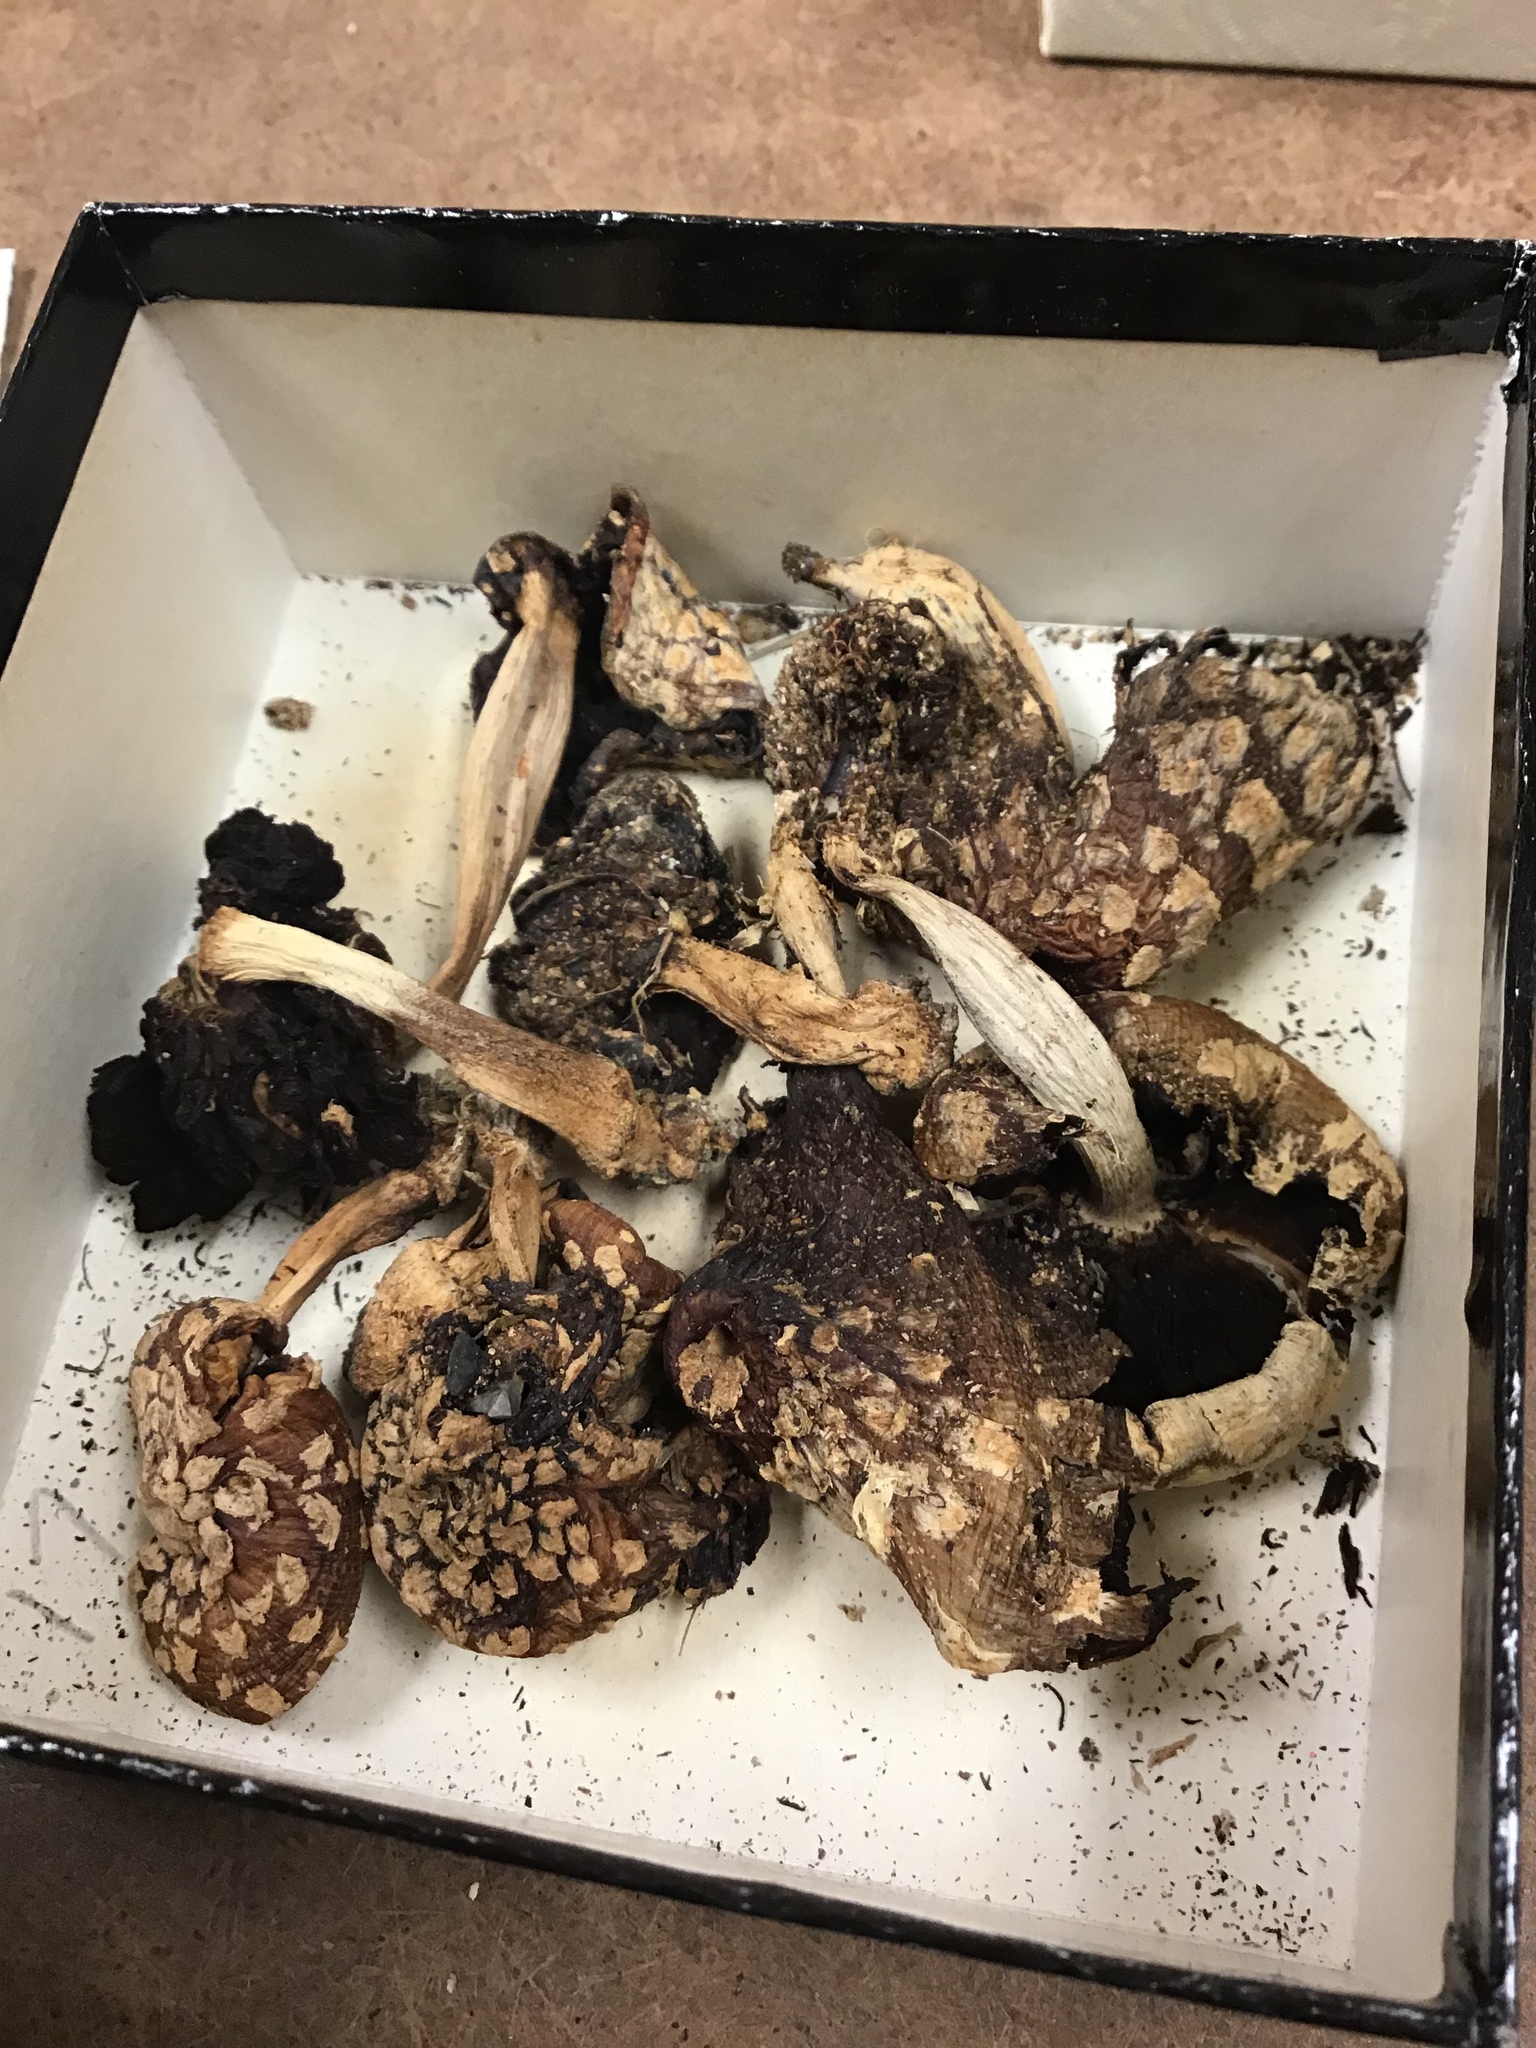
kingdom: Fungi
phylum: Basidiomycota
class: Agaricomycetes
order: Agaricales
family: Psathyrellaceae
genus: Coprinopsis
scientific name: Coprinopsis variegata
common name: Scaly ink cap
